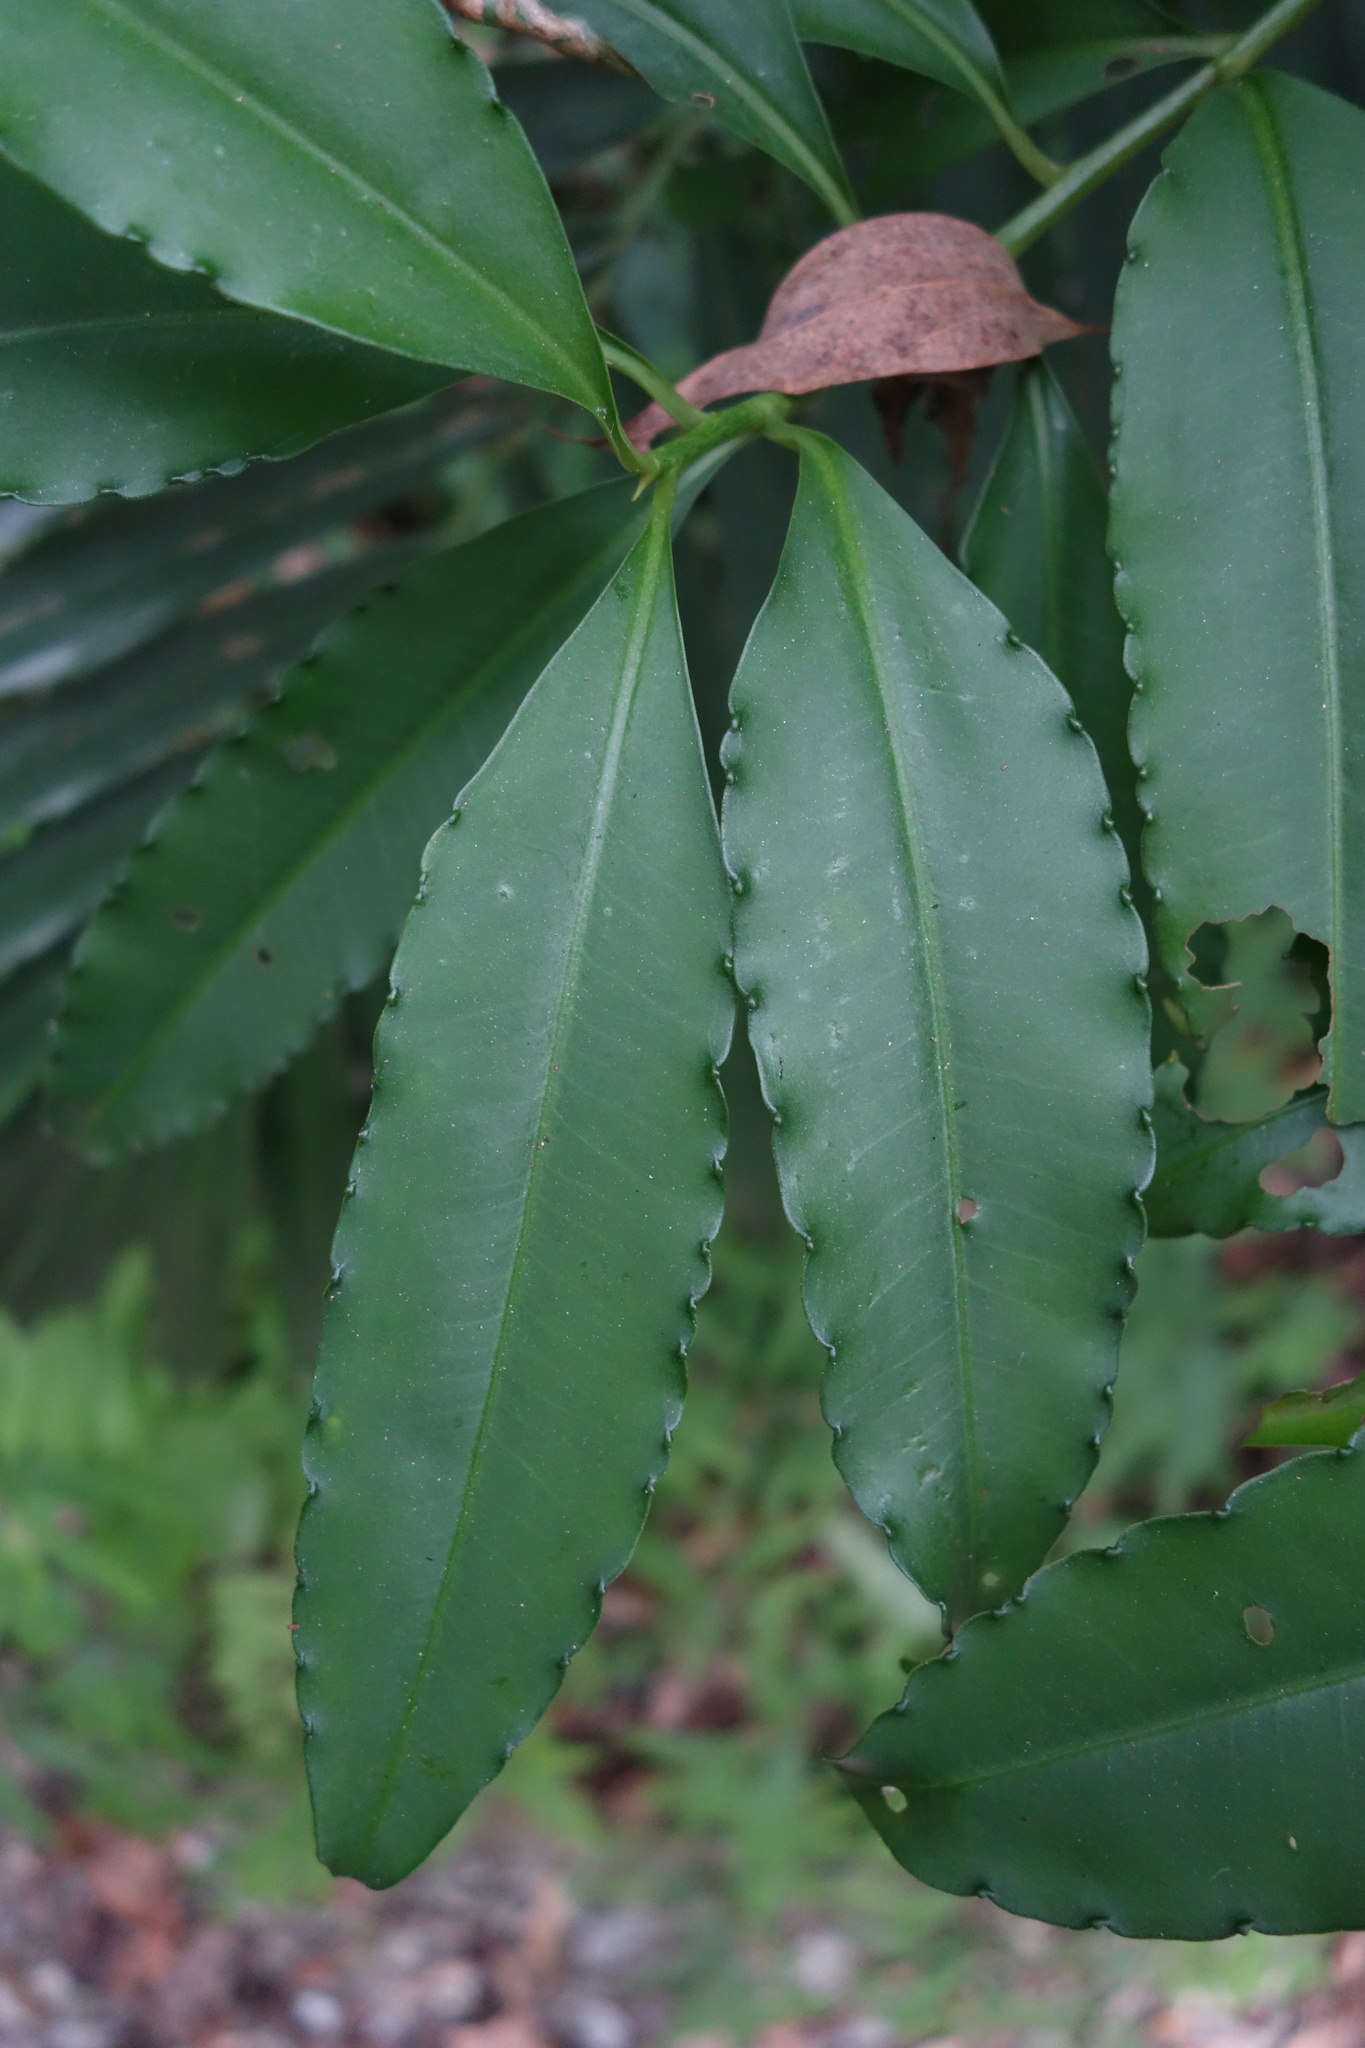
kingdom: Plantae
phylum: Tracheophyta
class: Magnoliopsida
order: Ericales
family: Primulaceae
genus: Ardisia
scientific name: Ardisia polysticta
